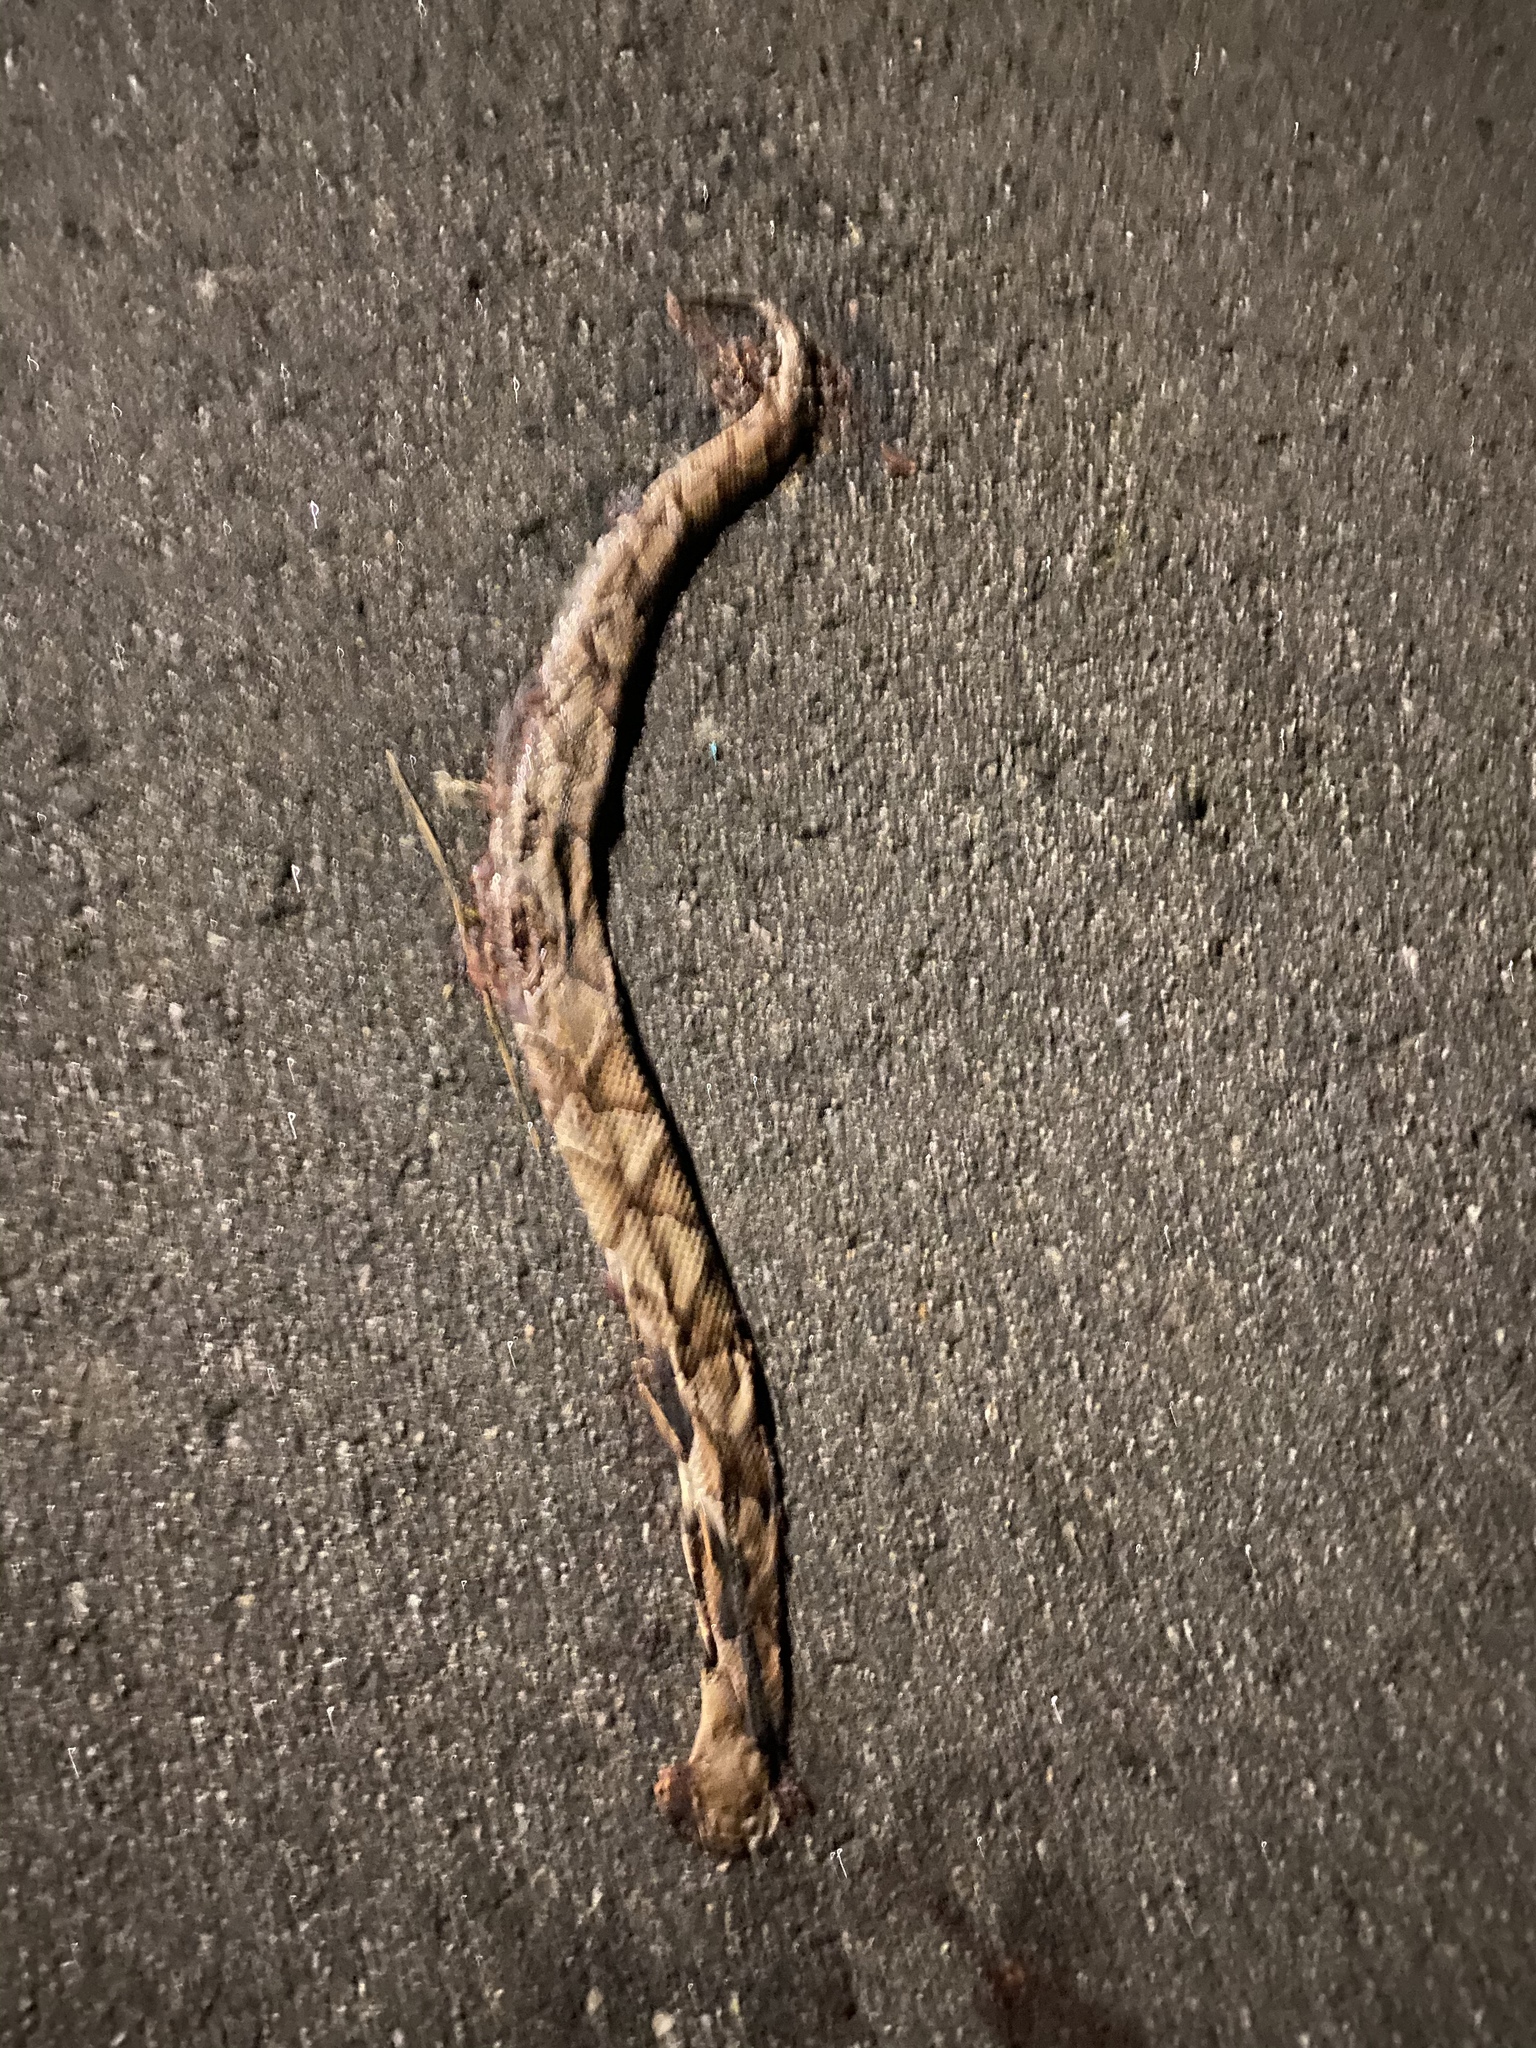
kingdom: Animalia
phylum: Chordata
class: Squamata
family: Viperidae
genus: Agkistrodon
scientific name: Agkistrodon contortrix
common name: Northern copperhead
